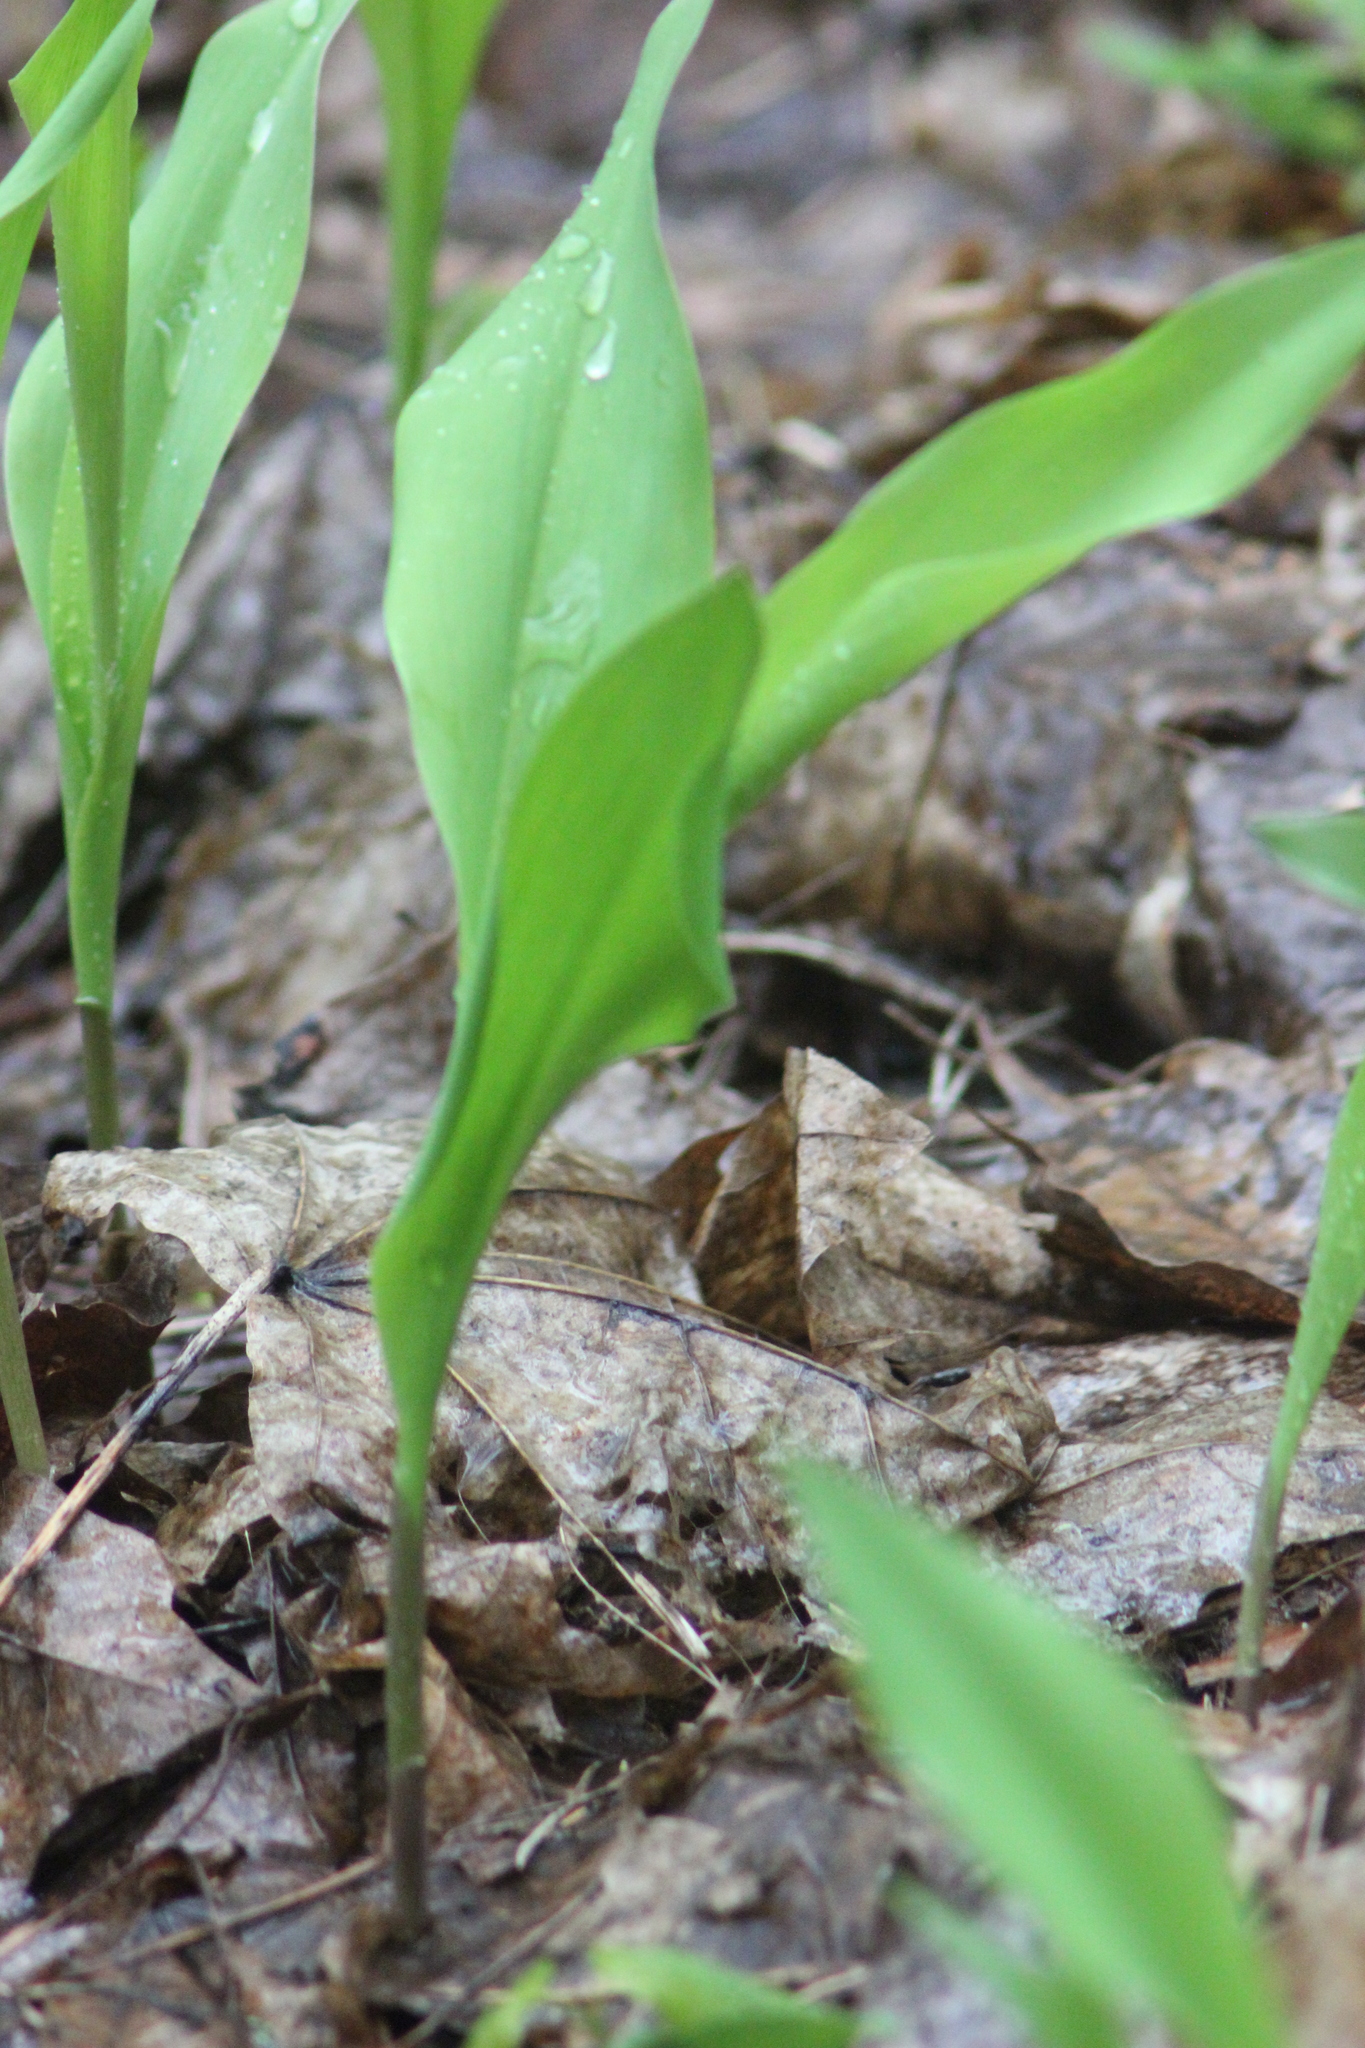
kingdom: Plantae
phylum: Tracheophyta
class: Liliopsida
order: Asparagales
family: Asparagaceae
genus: Convallaria
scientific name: Convallaria majalis
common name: Lily-of-the-valley
